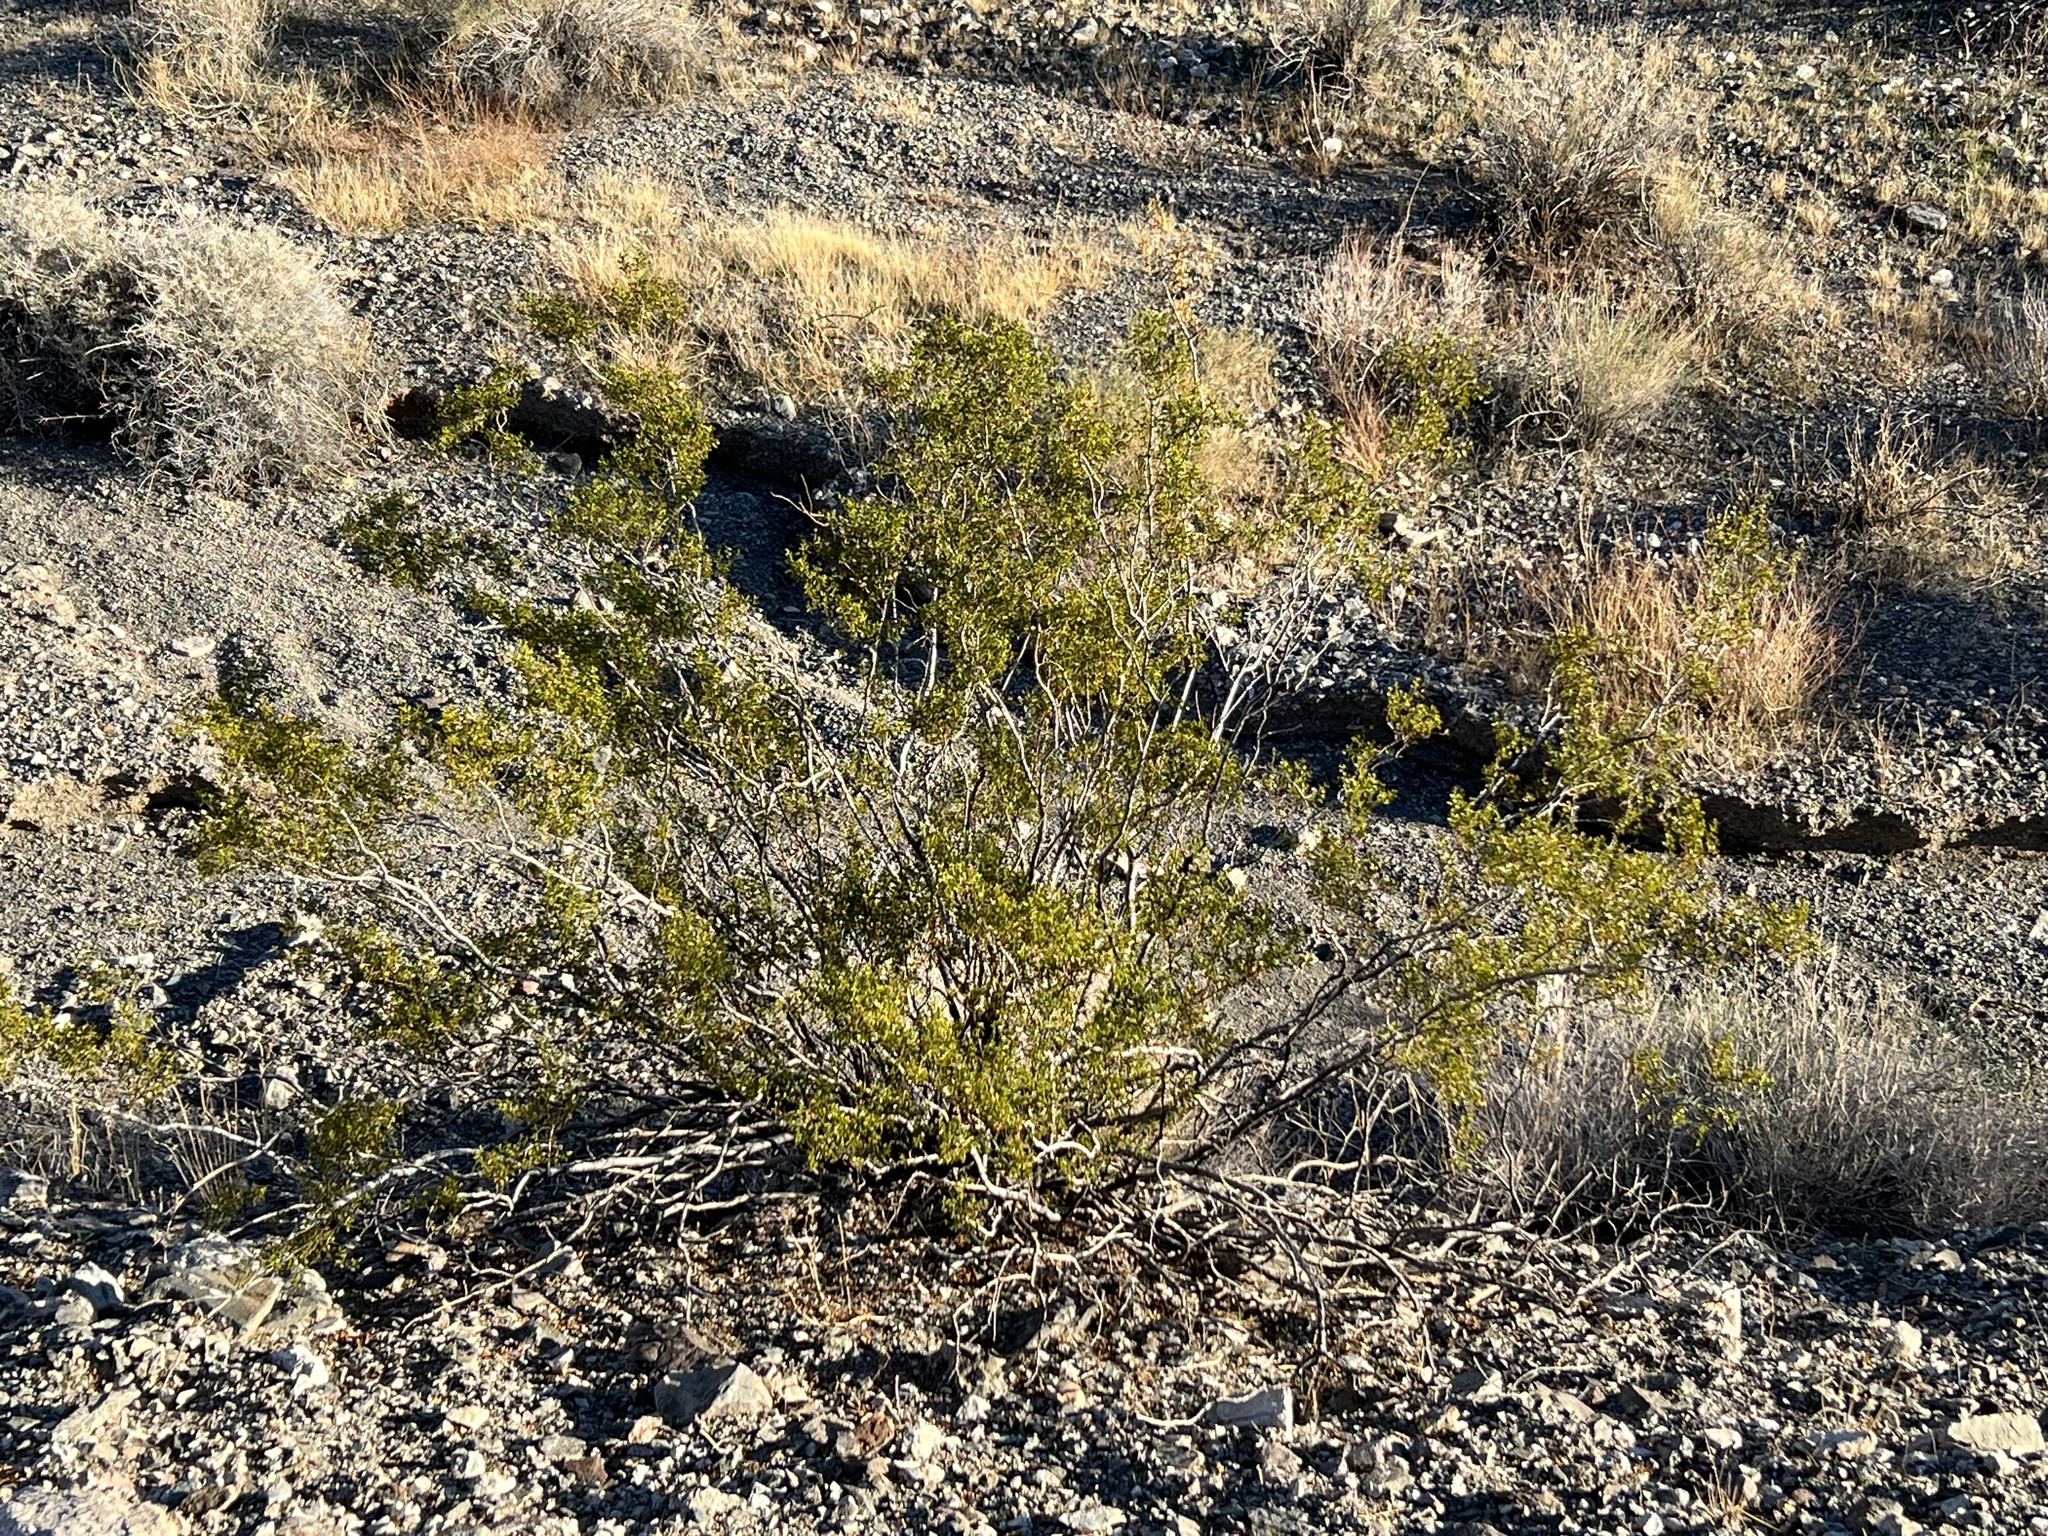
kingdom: Plantae
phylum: Tracheophyta
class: Magnoliopsida
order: Zygophyllales
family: Zygophyllaceae
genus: Larrea
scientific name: Larrea tridentata
